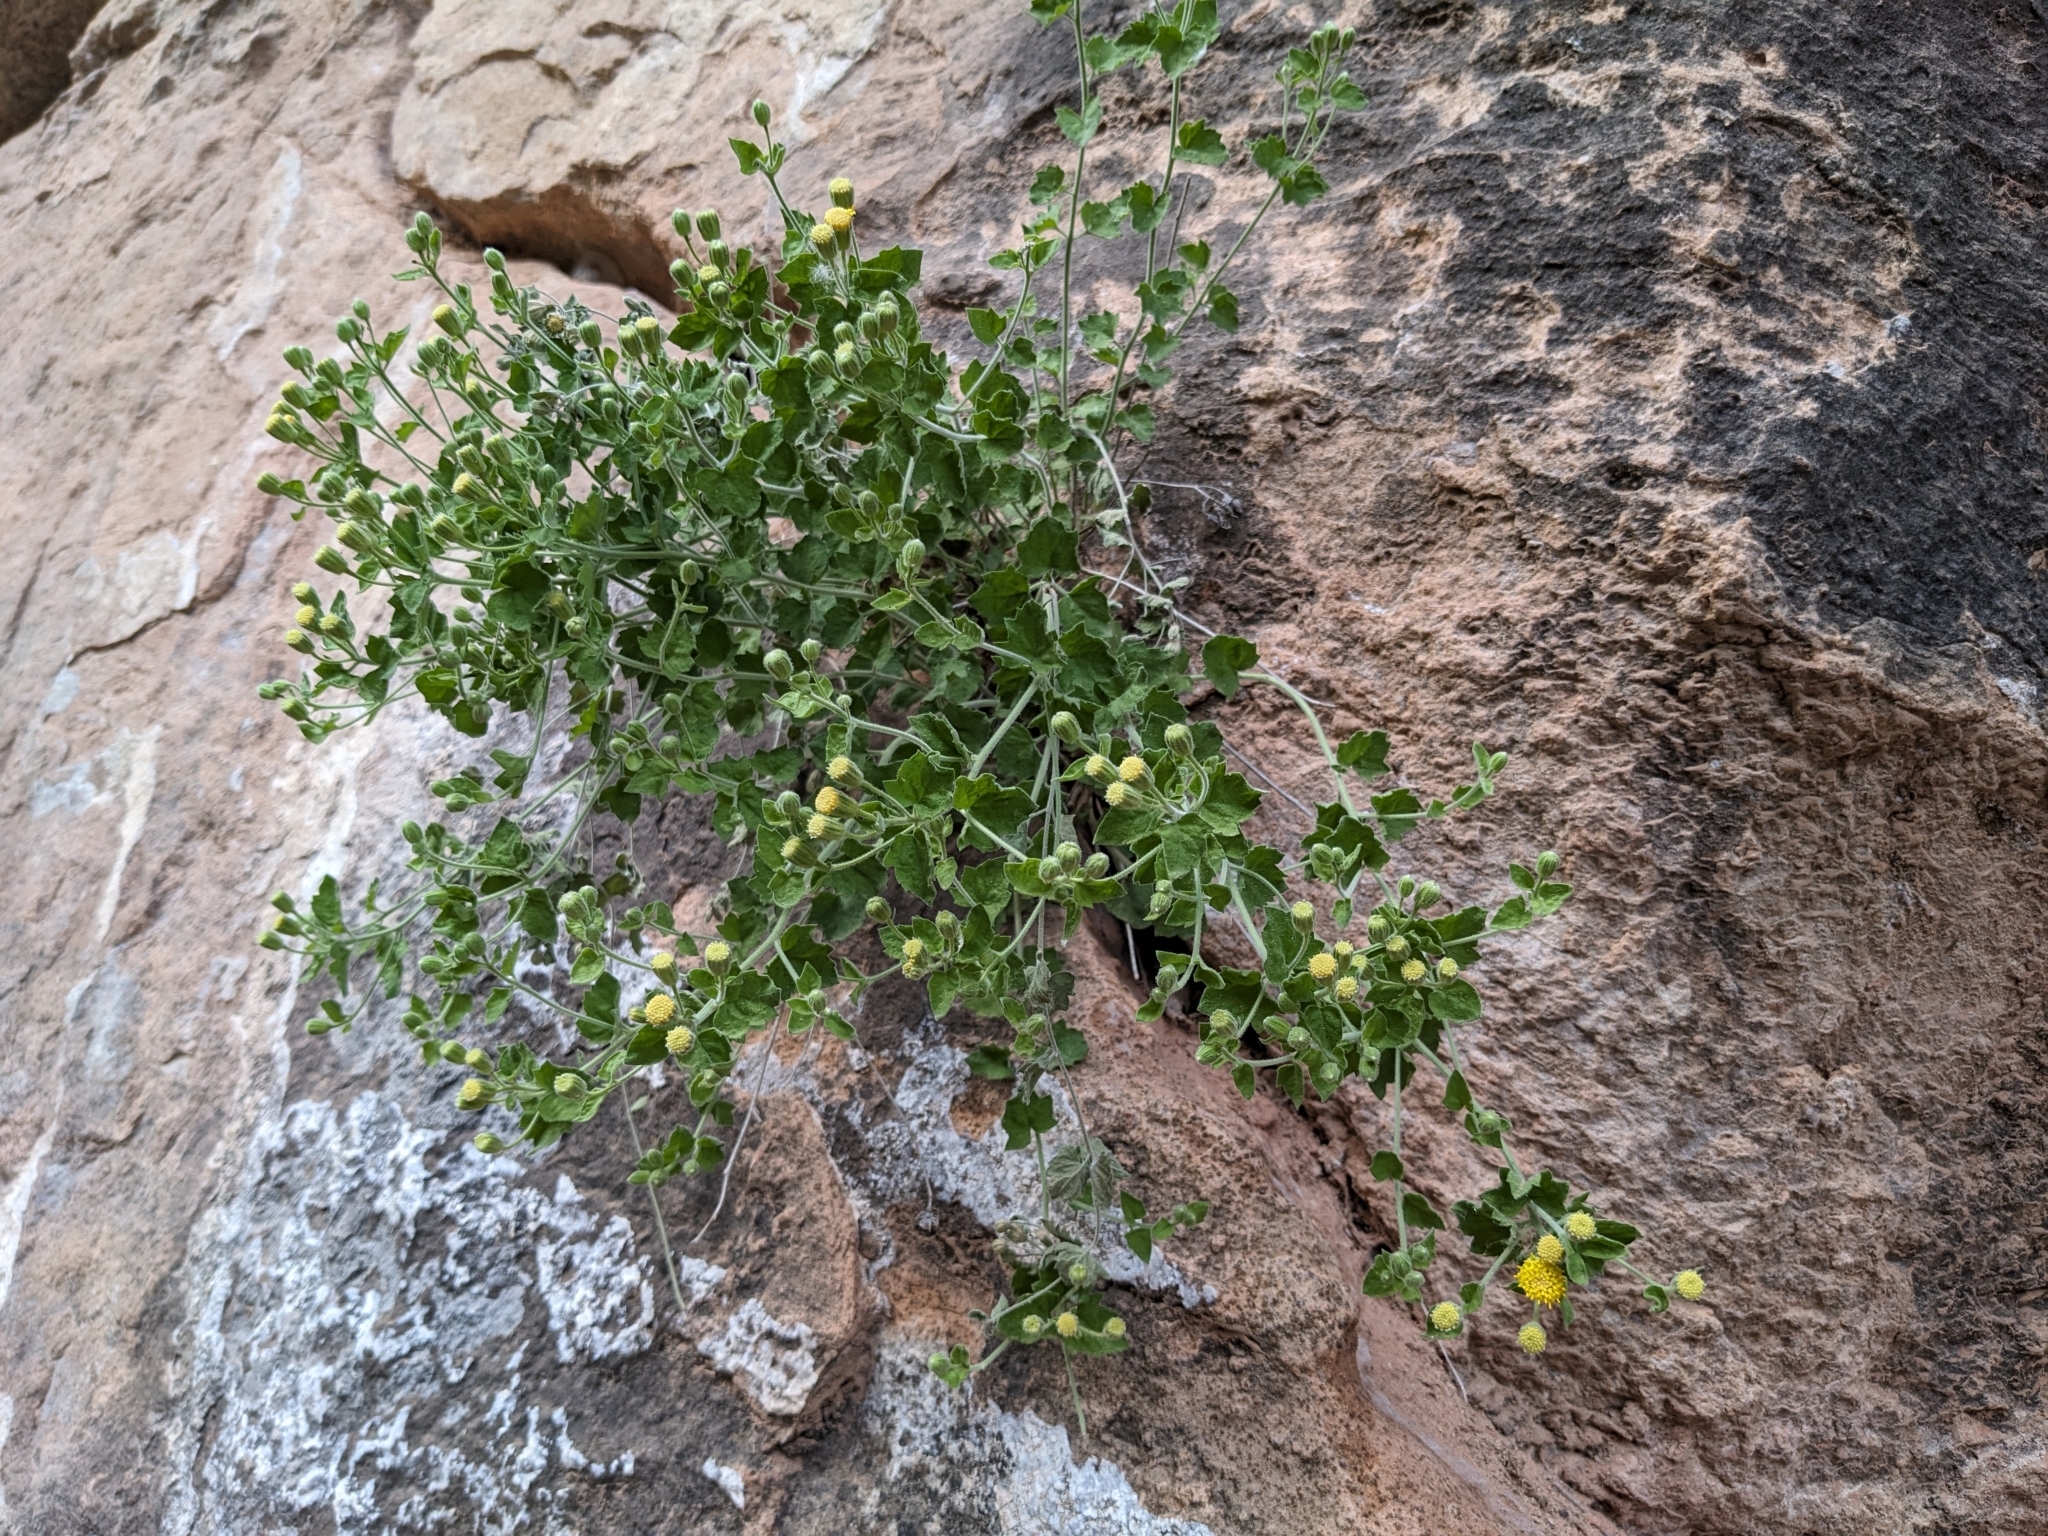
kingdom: Plantae
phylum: Tracheophyta
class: Magnoliopsida
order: Asterales
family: Asteraceae
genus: Laphamia
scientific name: Laphamia sanchezii
